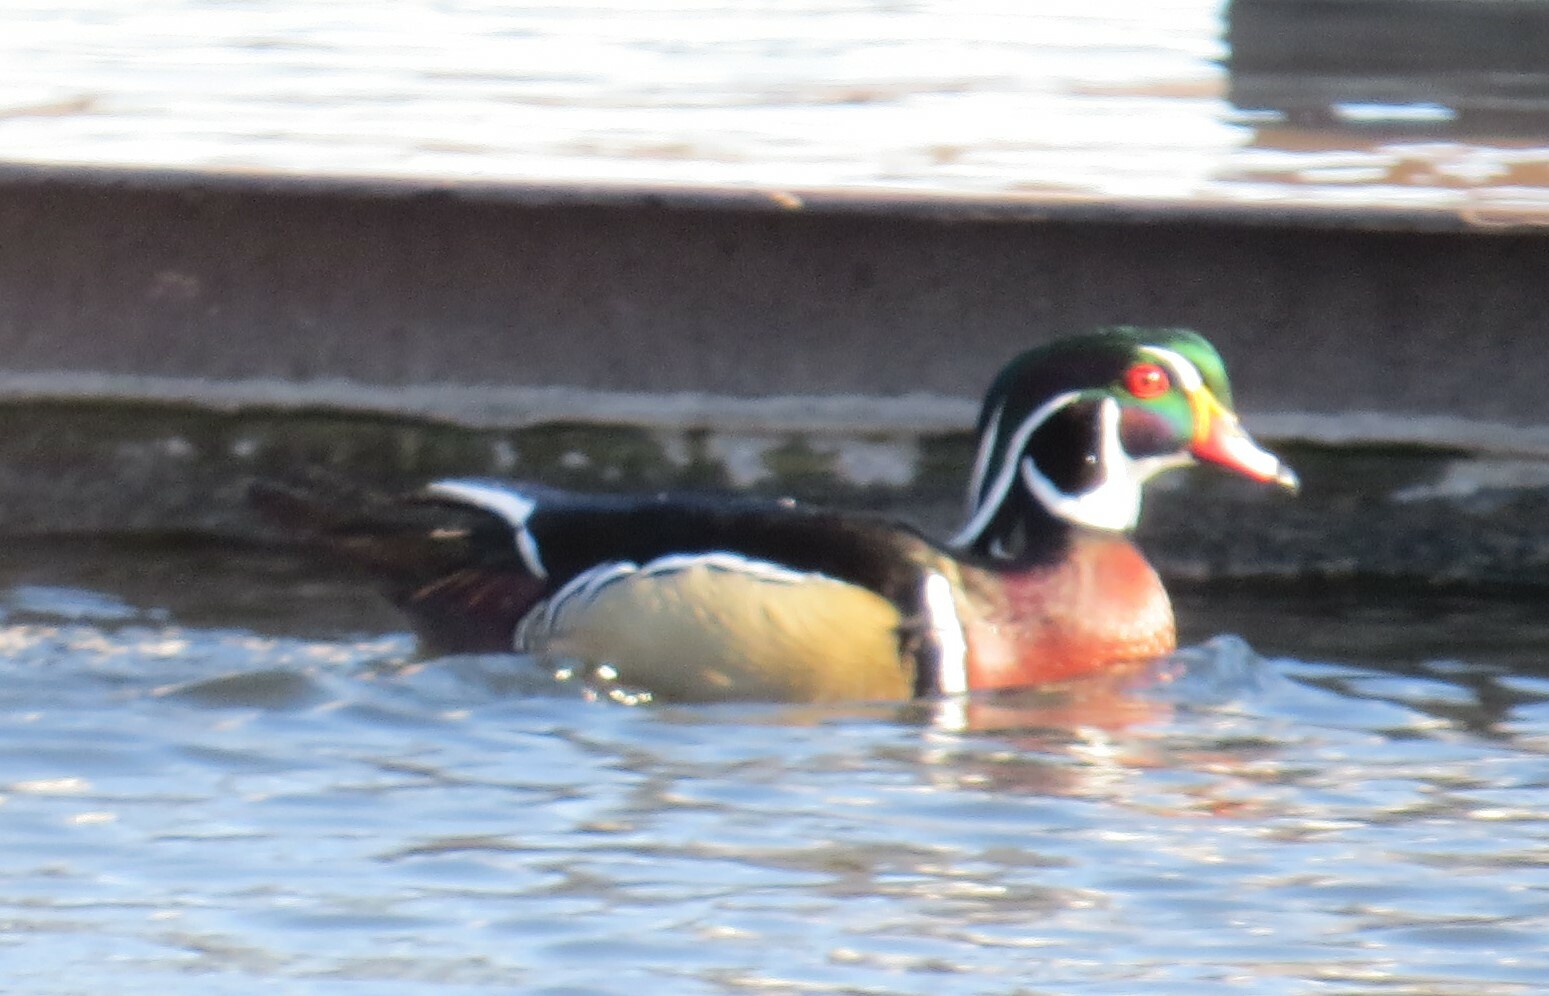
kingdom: Animalia
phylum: Chordata
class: Aves
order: Anseriformes
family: Anatidae
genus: Aix
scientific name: Aix sponsa
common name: Wood duck
